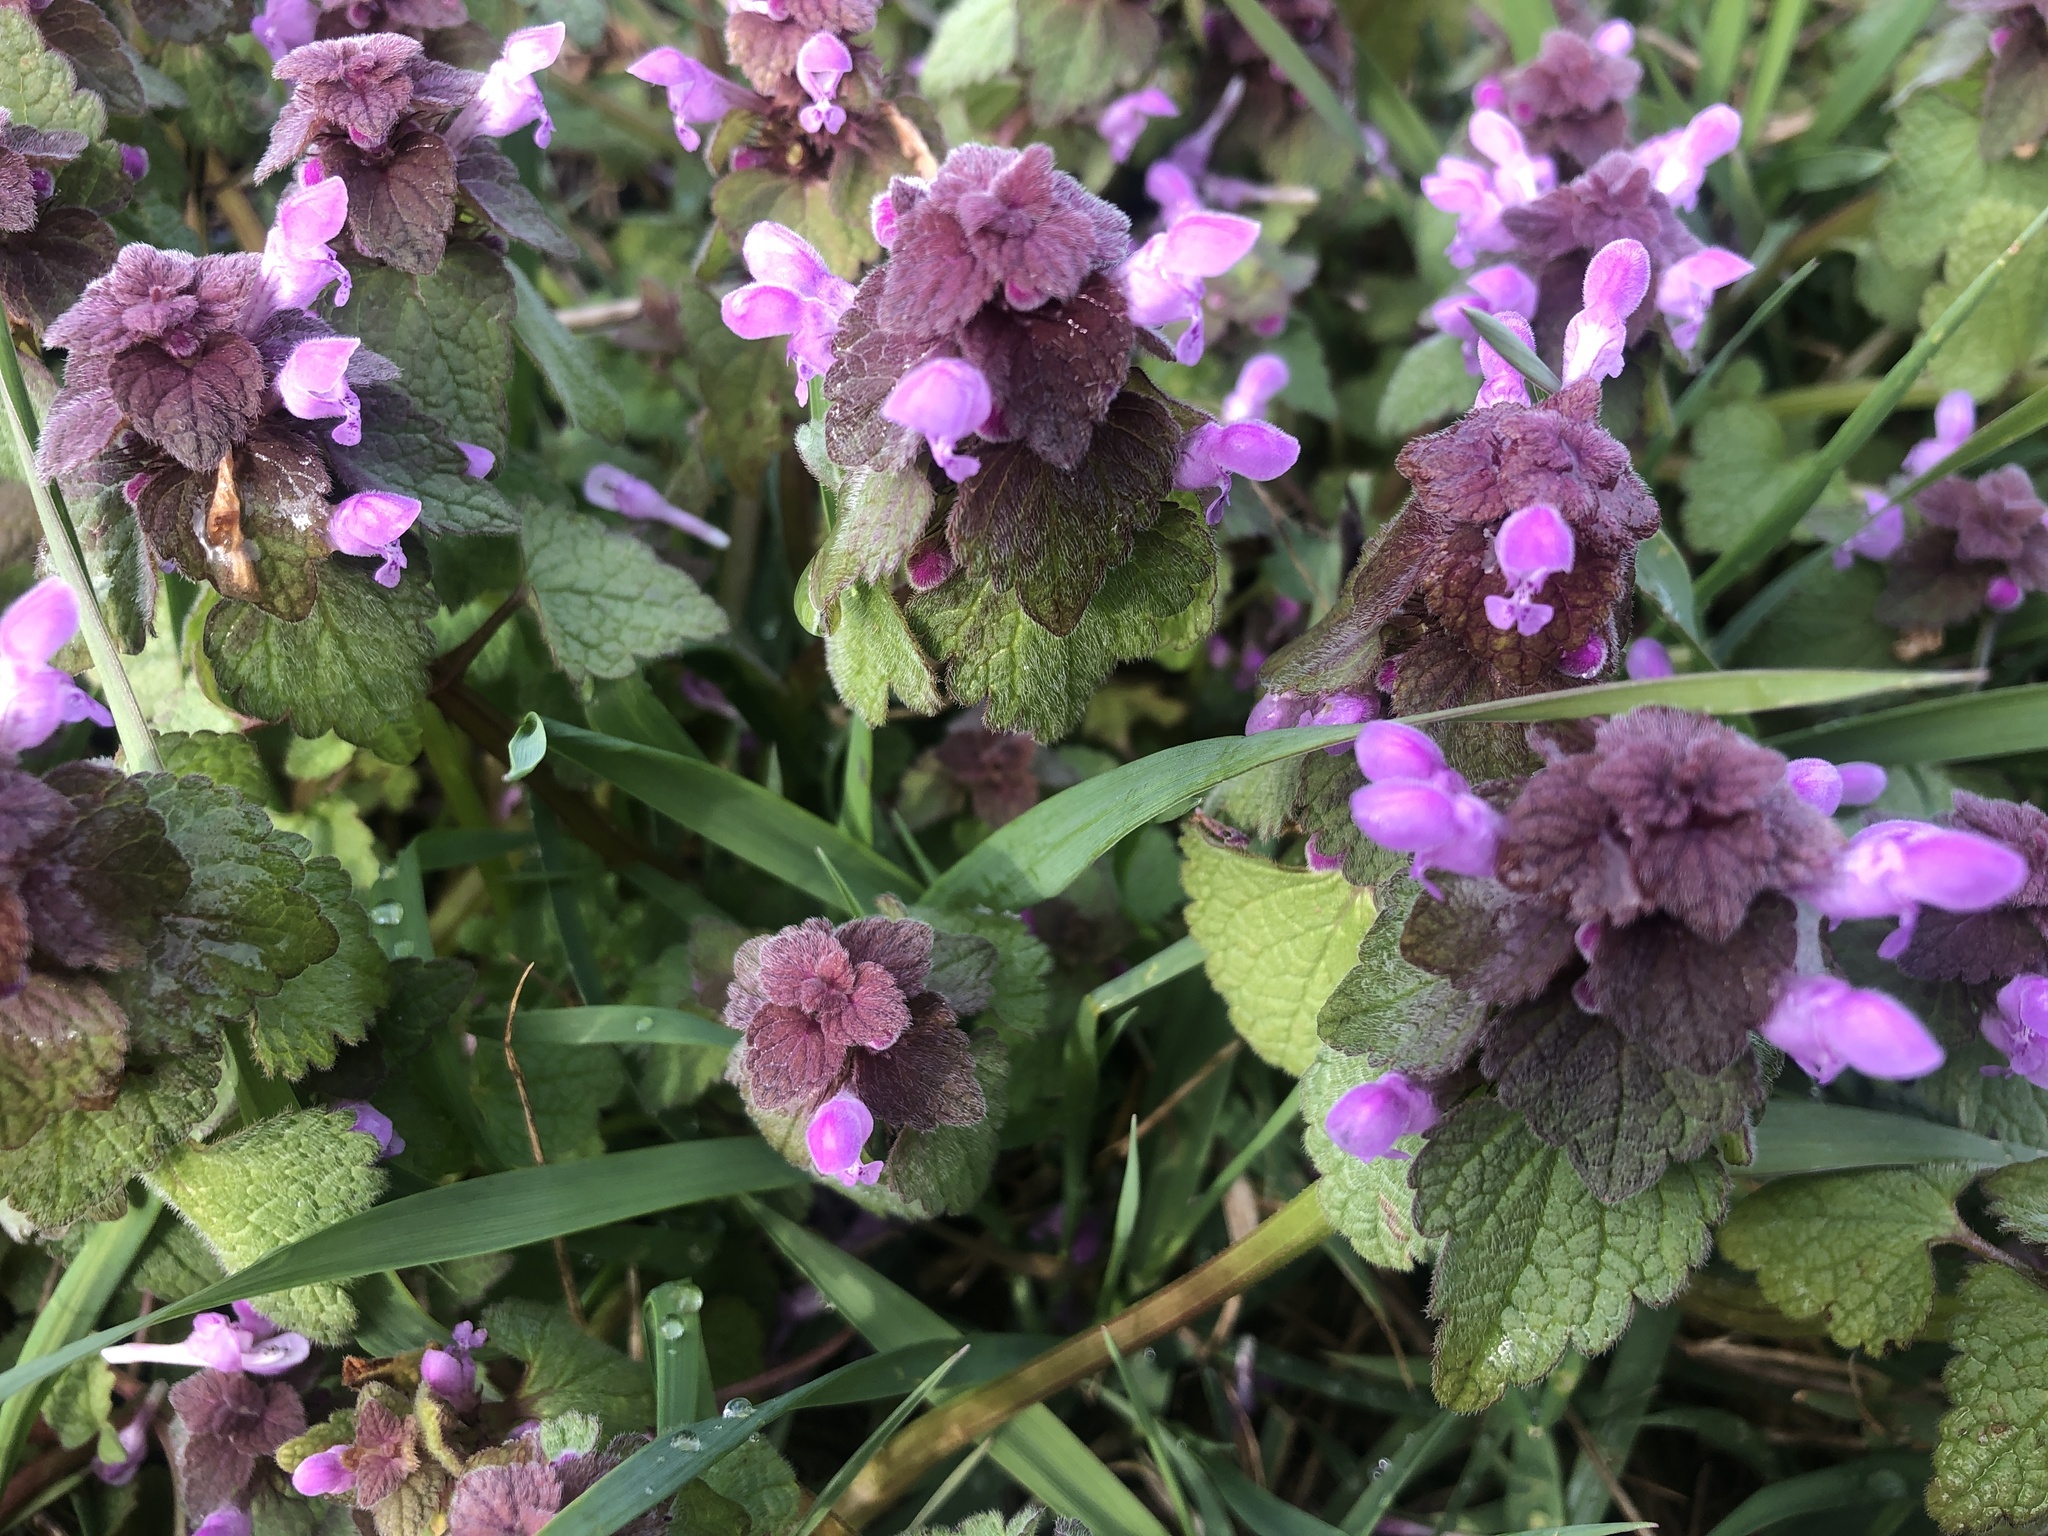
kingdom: Plantae
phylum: Tracheophyta
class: Magnoliopsida
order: Lamiales
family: Lamiaceae
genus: Lamium
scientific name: Lamium purpureum
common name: Red dead-nettle
